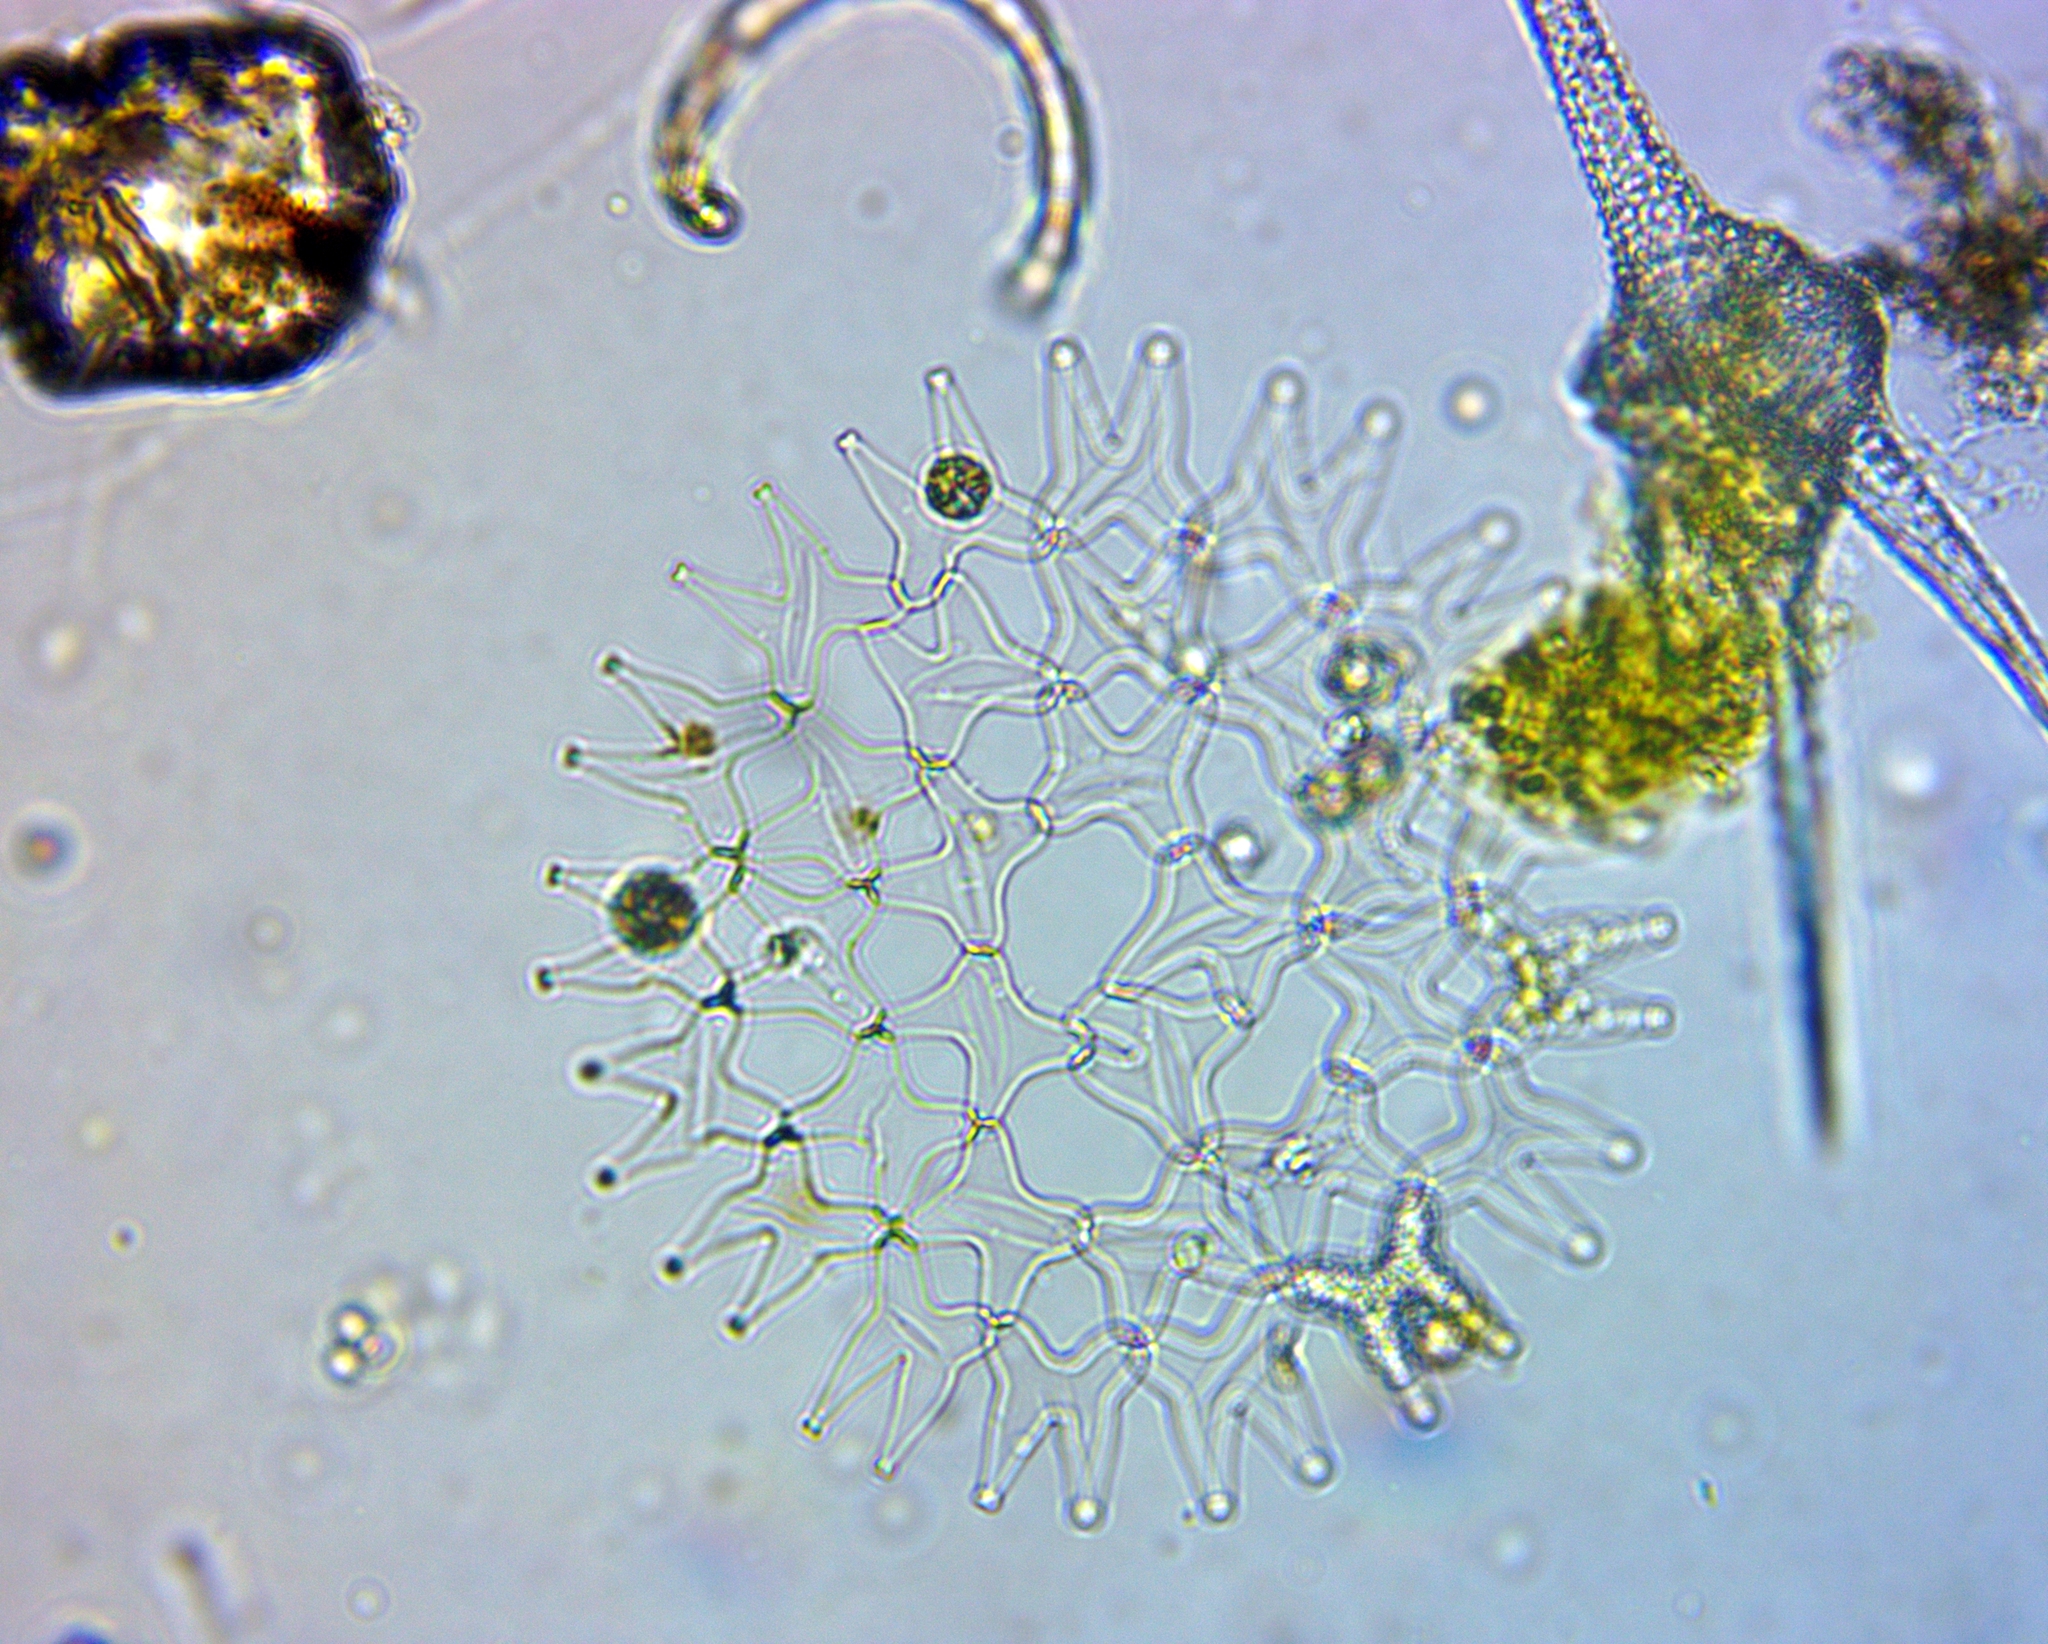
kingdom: Plantae
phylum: Chlorophyta
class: Chlorophyceae
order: Sphaeropleales
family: Hydrodictyaceae
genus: Pediastrum
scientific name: Pediastrum duplex
